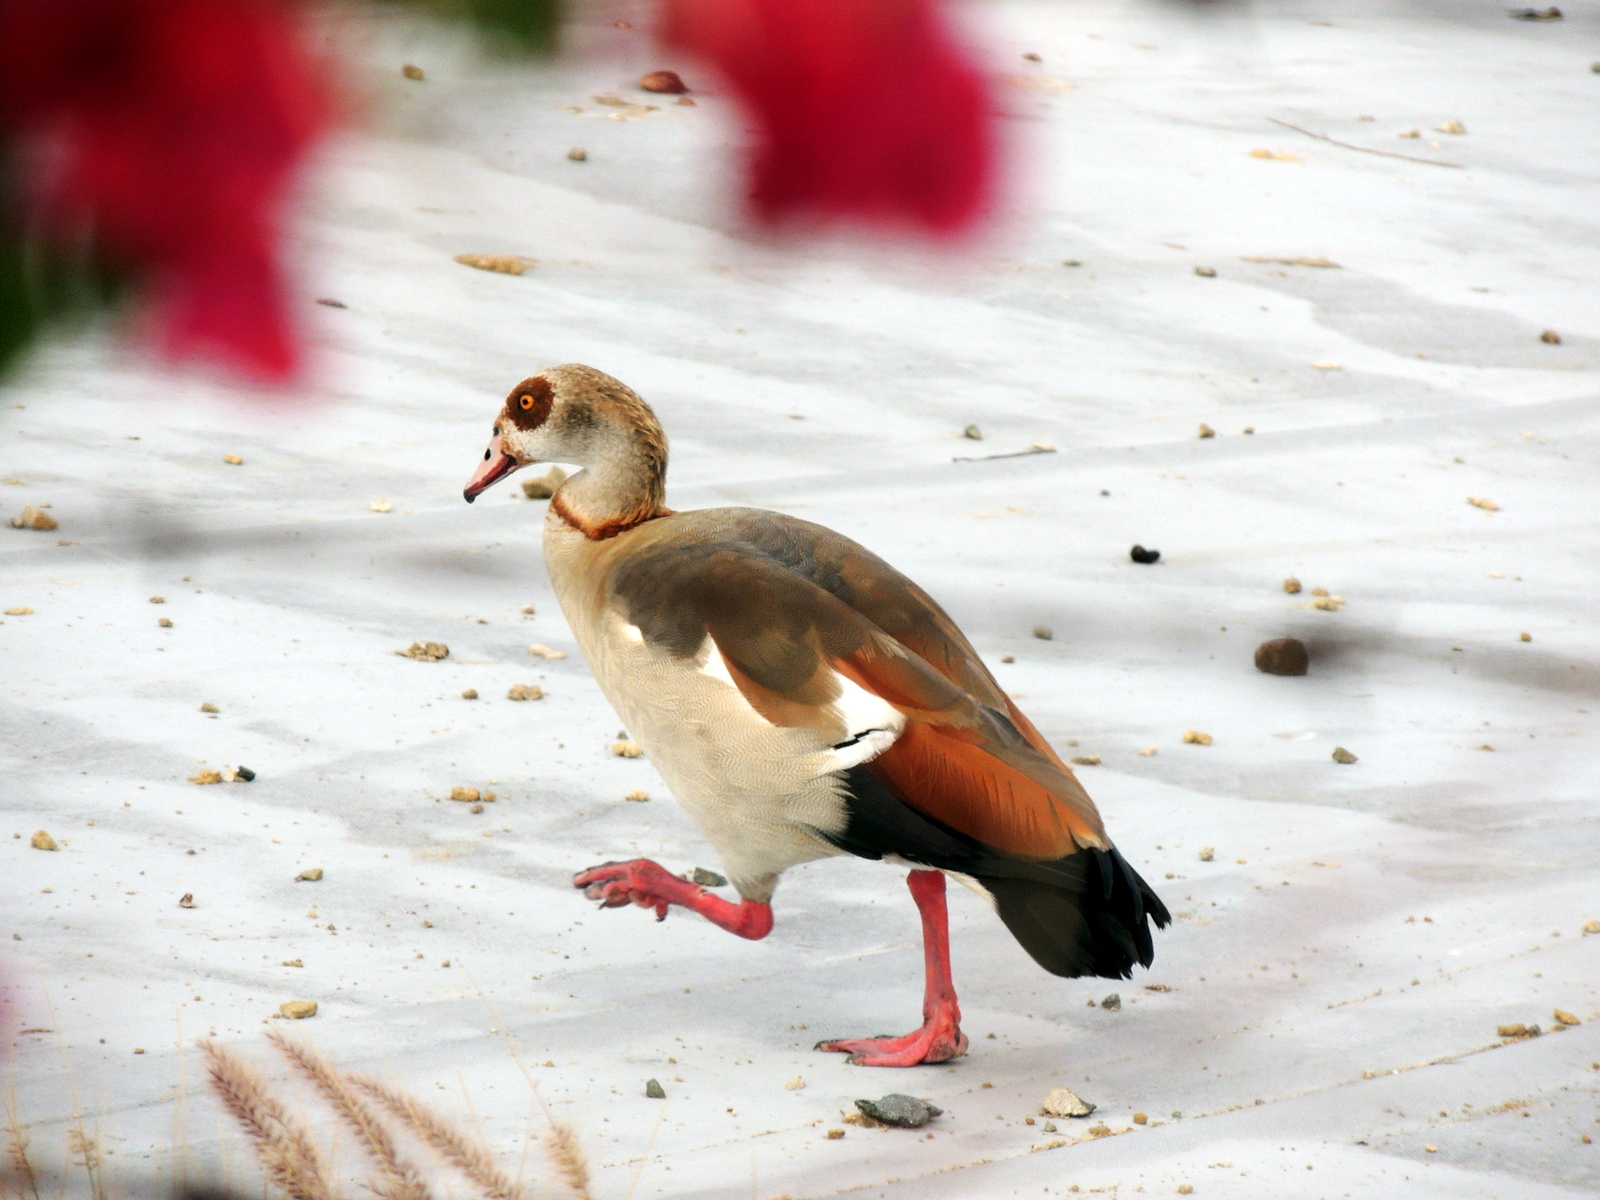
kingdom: Animalia
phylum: Chordata
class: Aves
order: Anseriformes
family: Anatidae
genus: Alopochen
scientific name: Alopochen aegyptiaca
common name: Egyptian goose
